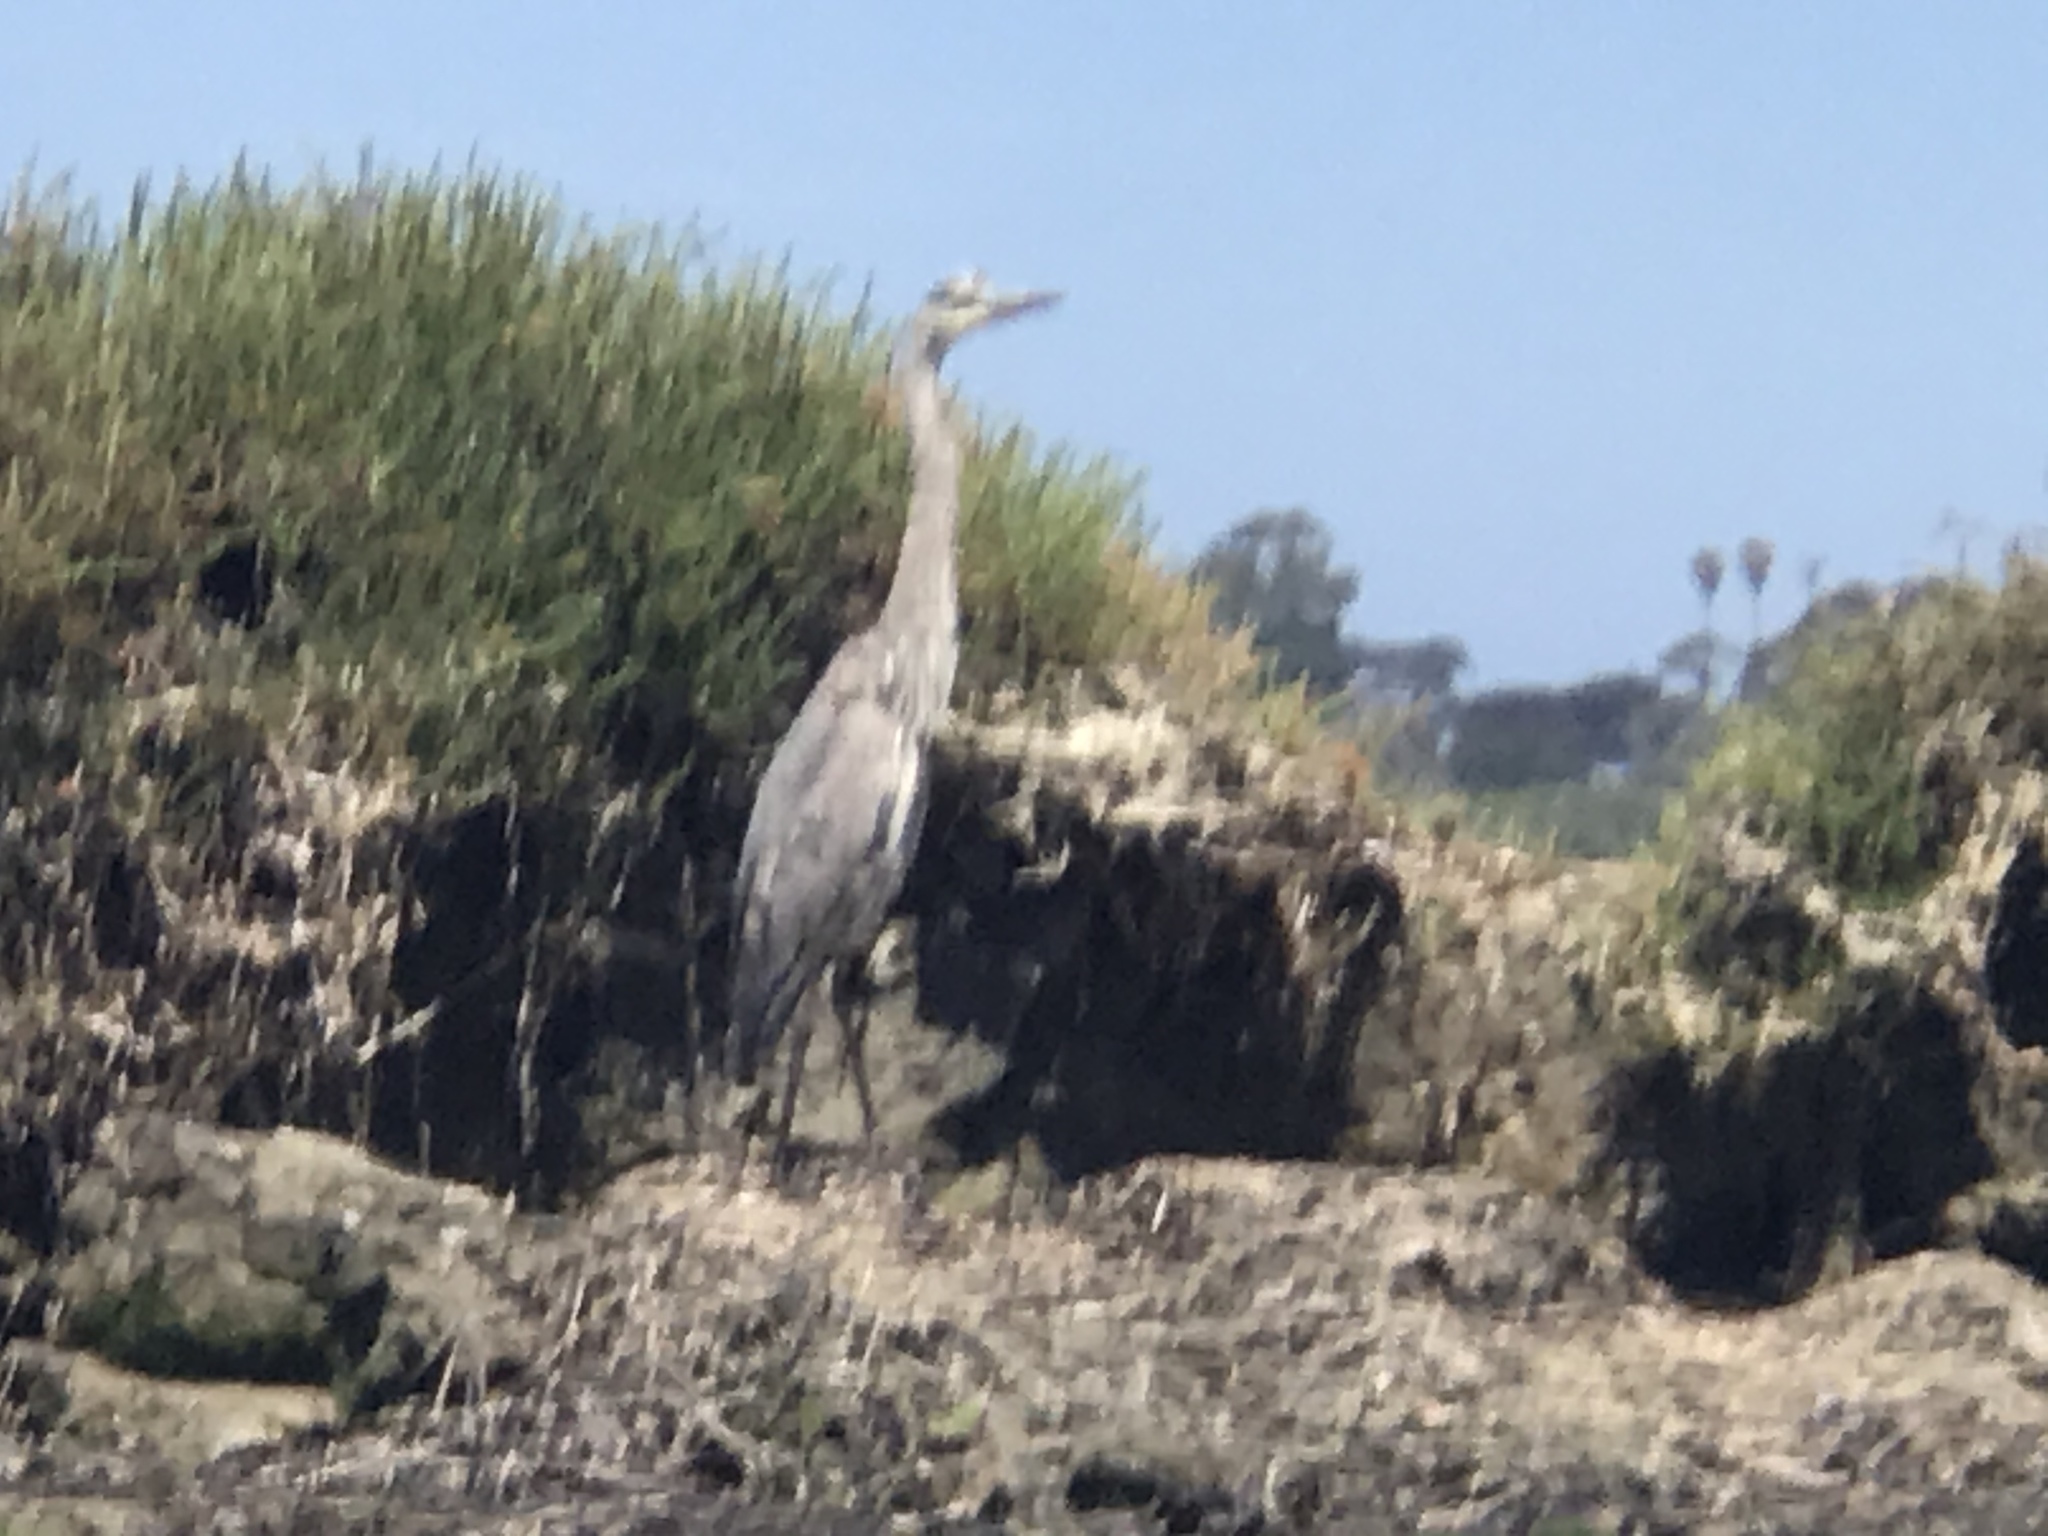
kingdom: Animalia
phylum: Chordata
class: Aves
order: Pelecaniformes
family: Ardeidae
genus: Ardea
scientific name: Ardea herodias
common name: Great blue heron
